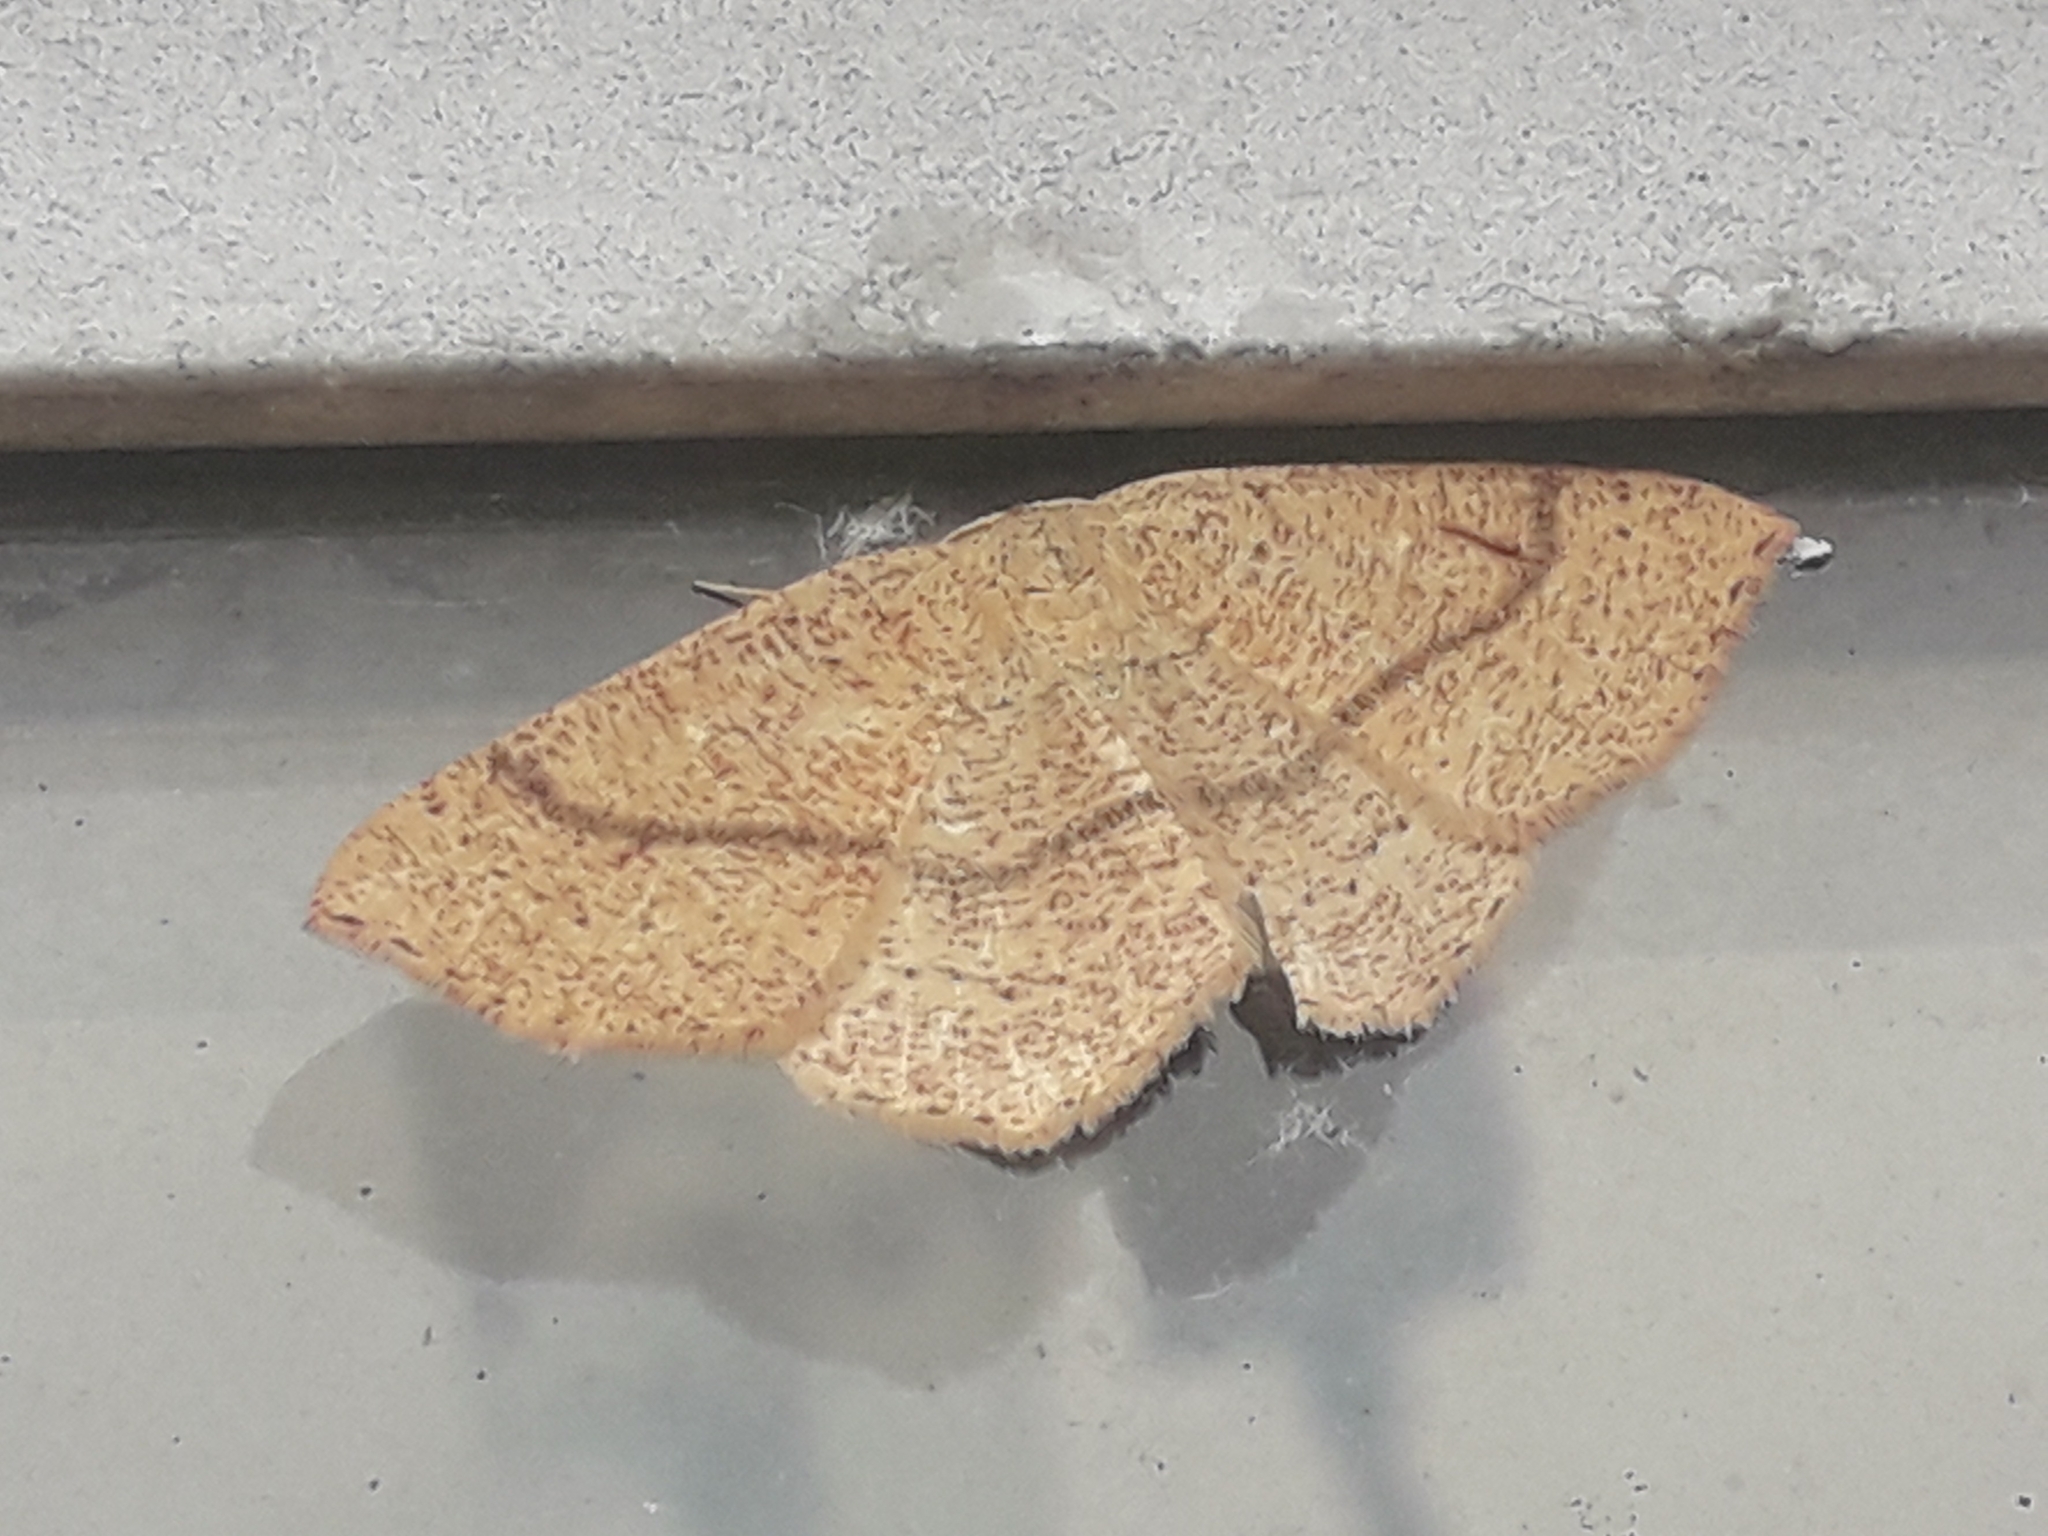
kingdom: Animalia
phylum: Arthropoda
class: Insecta
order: Lepidoptera
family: Geometridae
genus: Cyclophora
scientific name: Cyclophora ruficiliaria
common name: Jersey mocha
